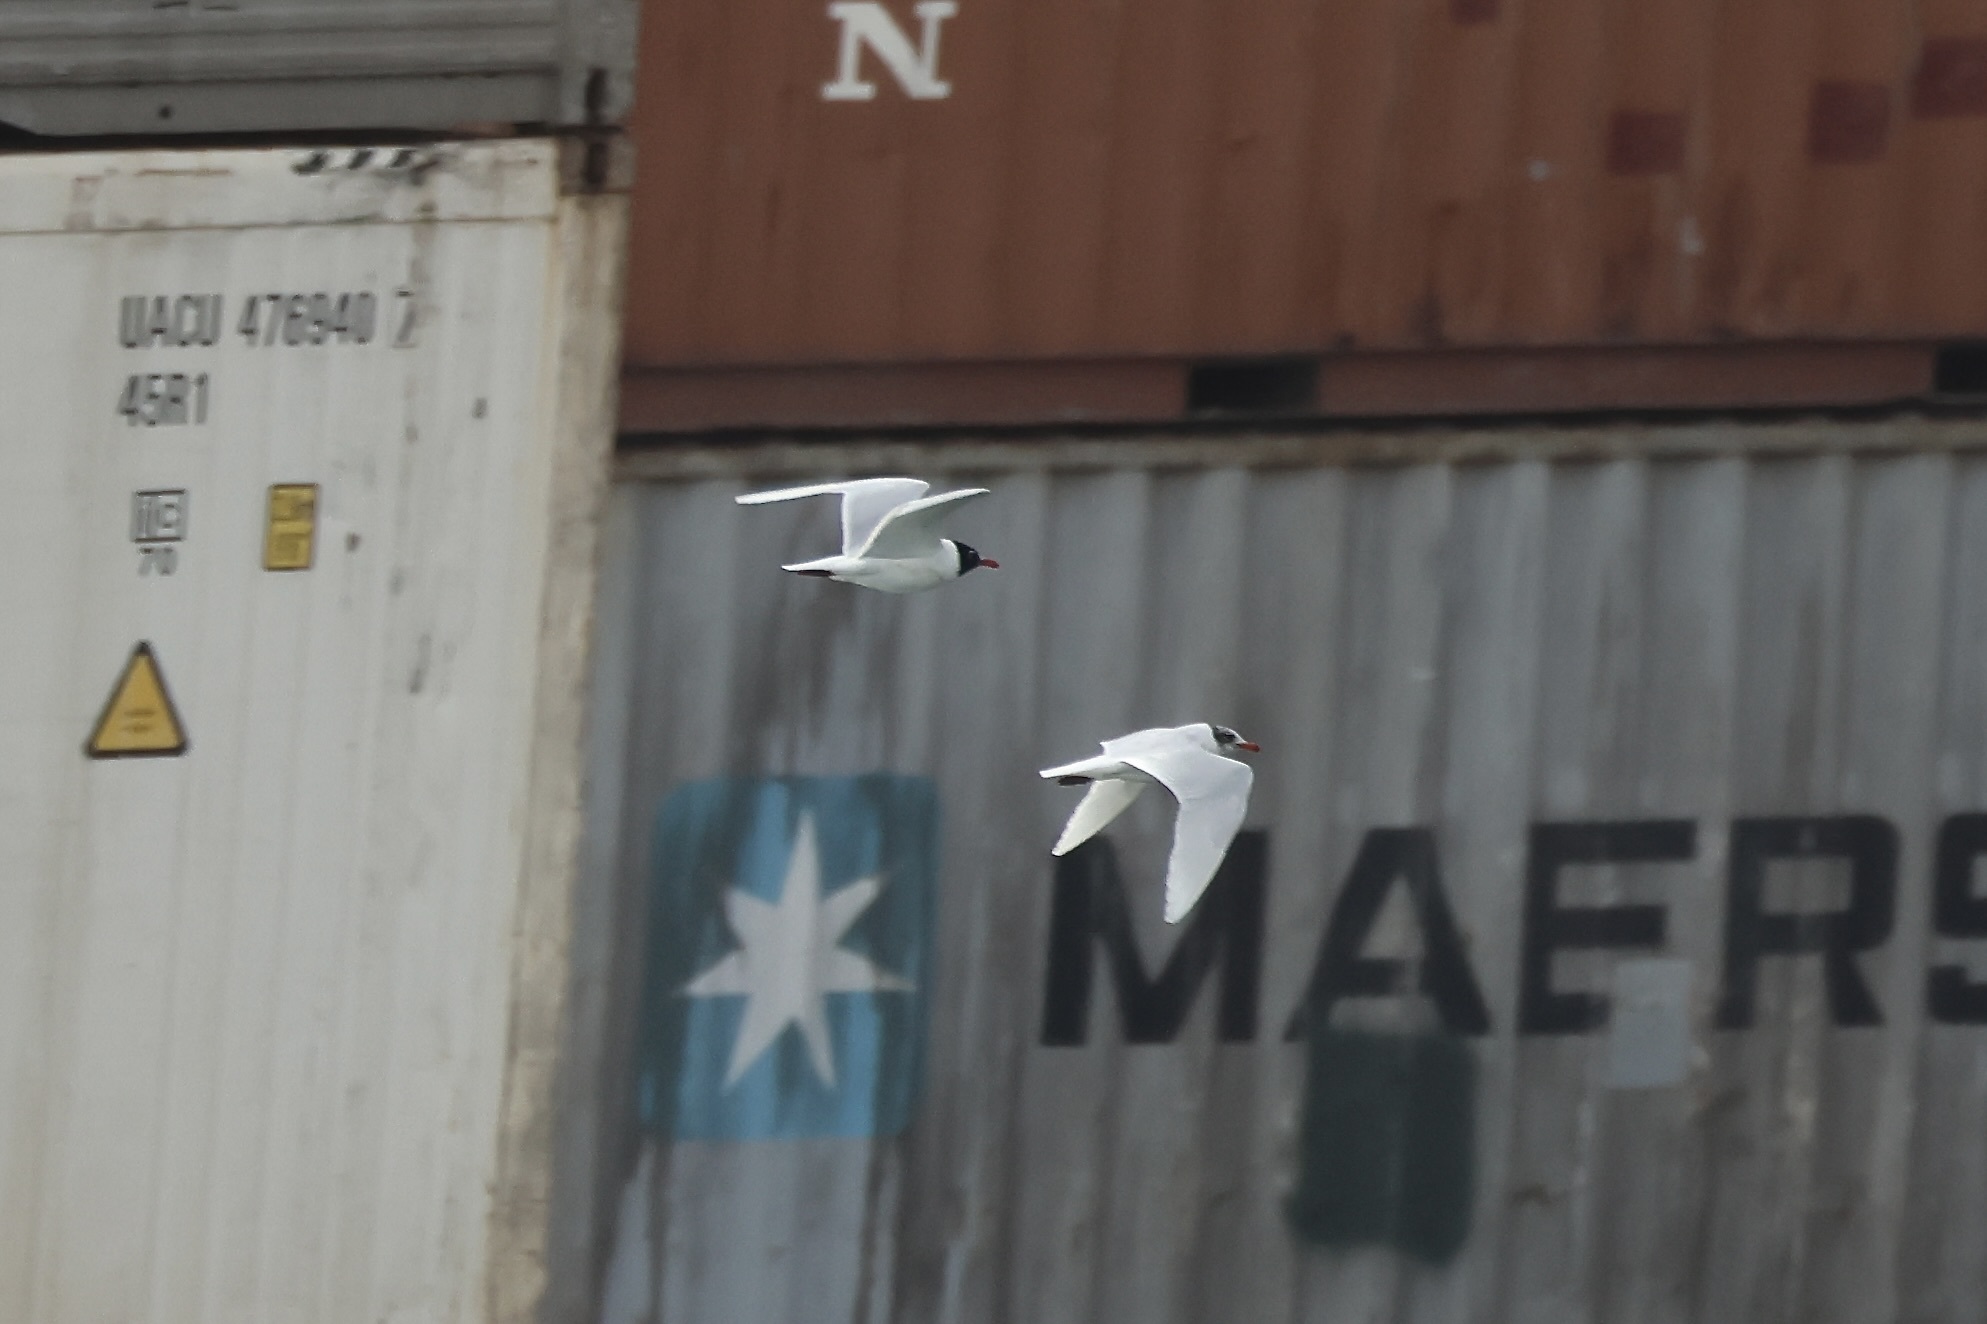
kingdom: Animalia
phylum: Chordata
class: Aves
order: Charadriiformes
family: Laridae
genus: Ichthyaetus
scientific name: Ichthyaetus melanocephalus
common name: Mediterranean gull
